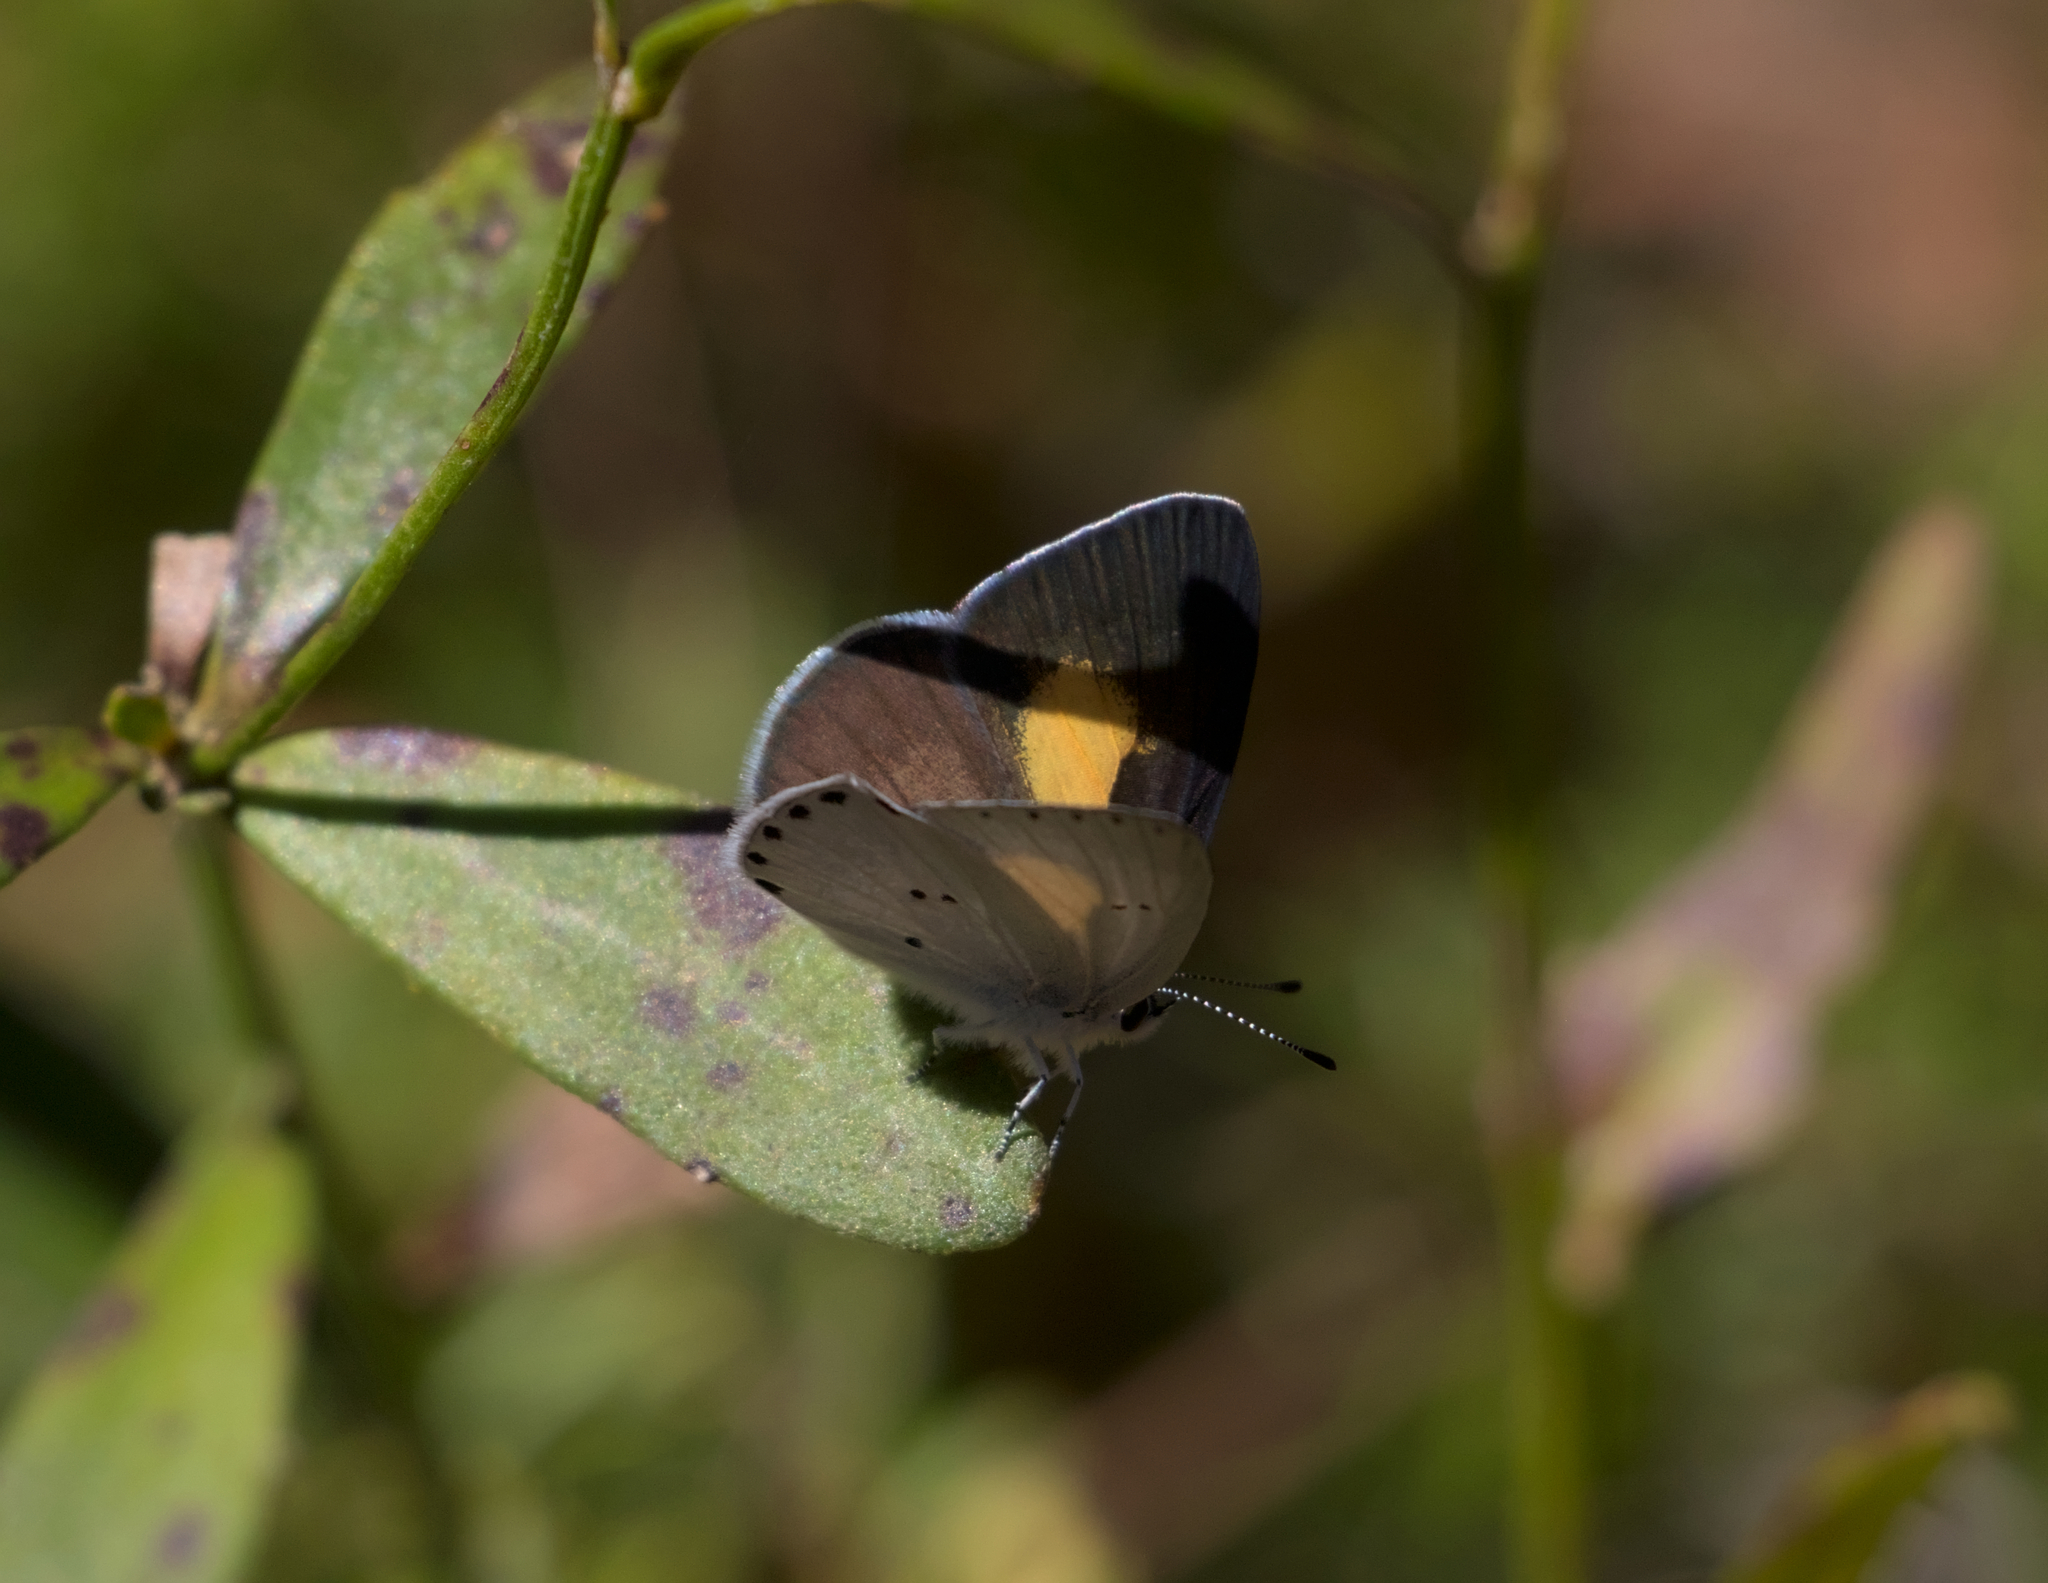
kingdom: Animalia
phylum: Arthropoda
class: Insecta
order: Lepidoptera
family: Lycaenidae
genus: Candalides
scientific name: Candalides xanthospilos
